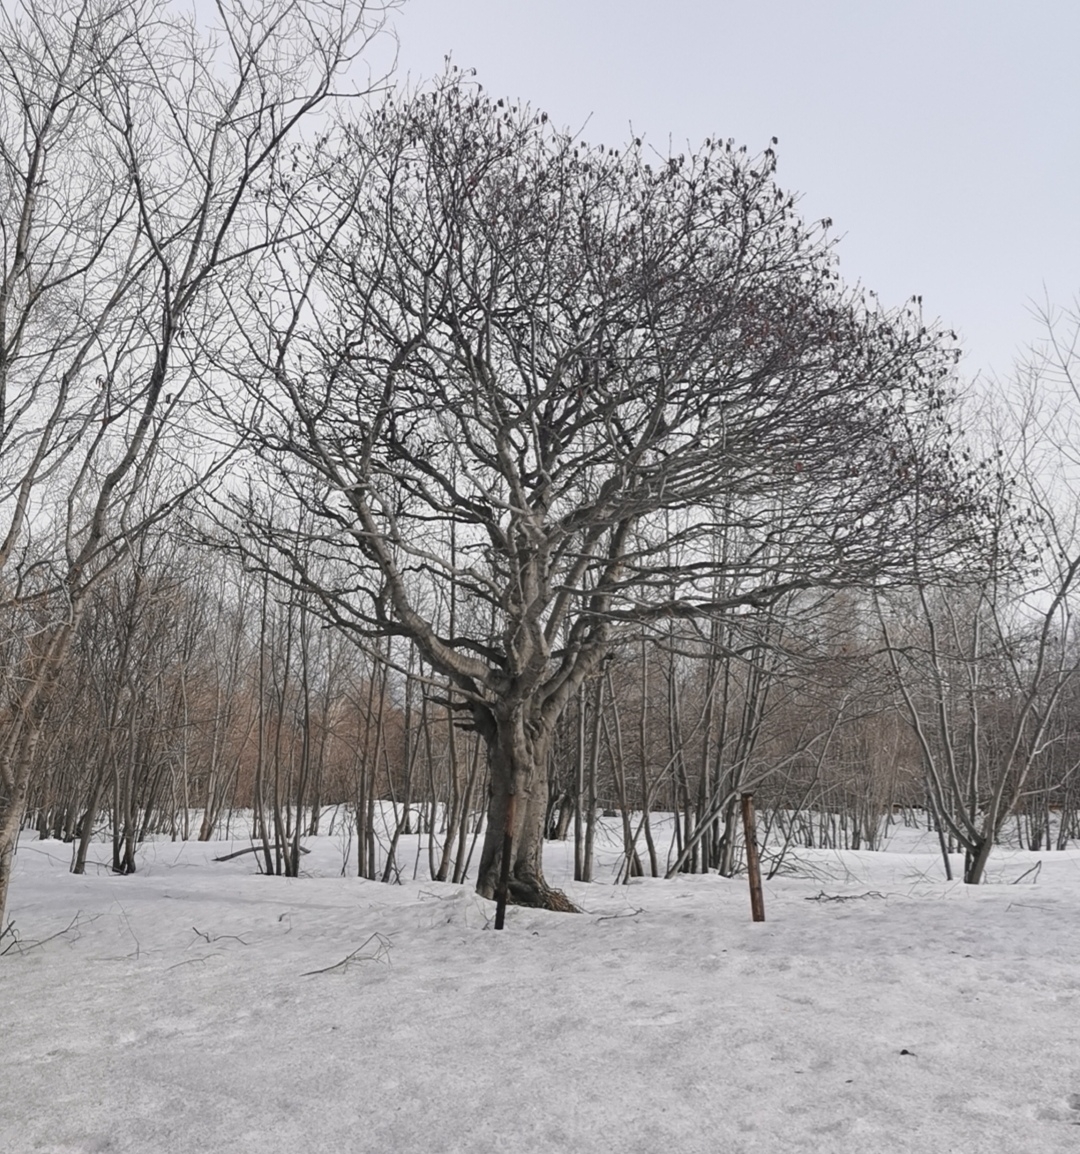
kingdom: Plantae
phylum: Tracheophyta
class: Magnoliopsida
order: Fagales
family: Betulaceae
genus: Alnus
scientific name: Alnus hirsuta
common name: Manchurian alder
